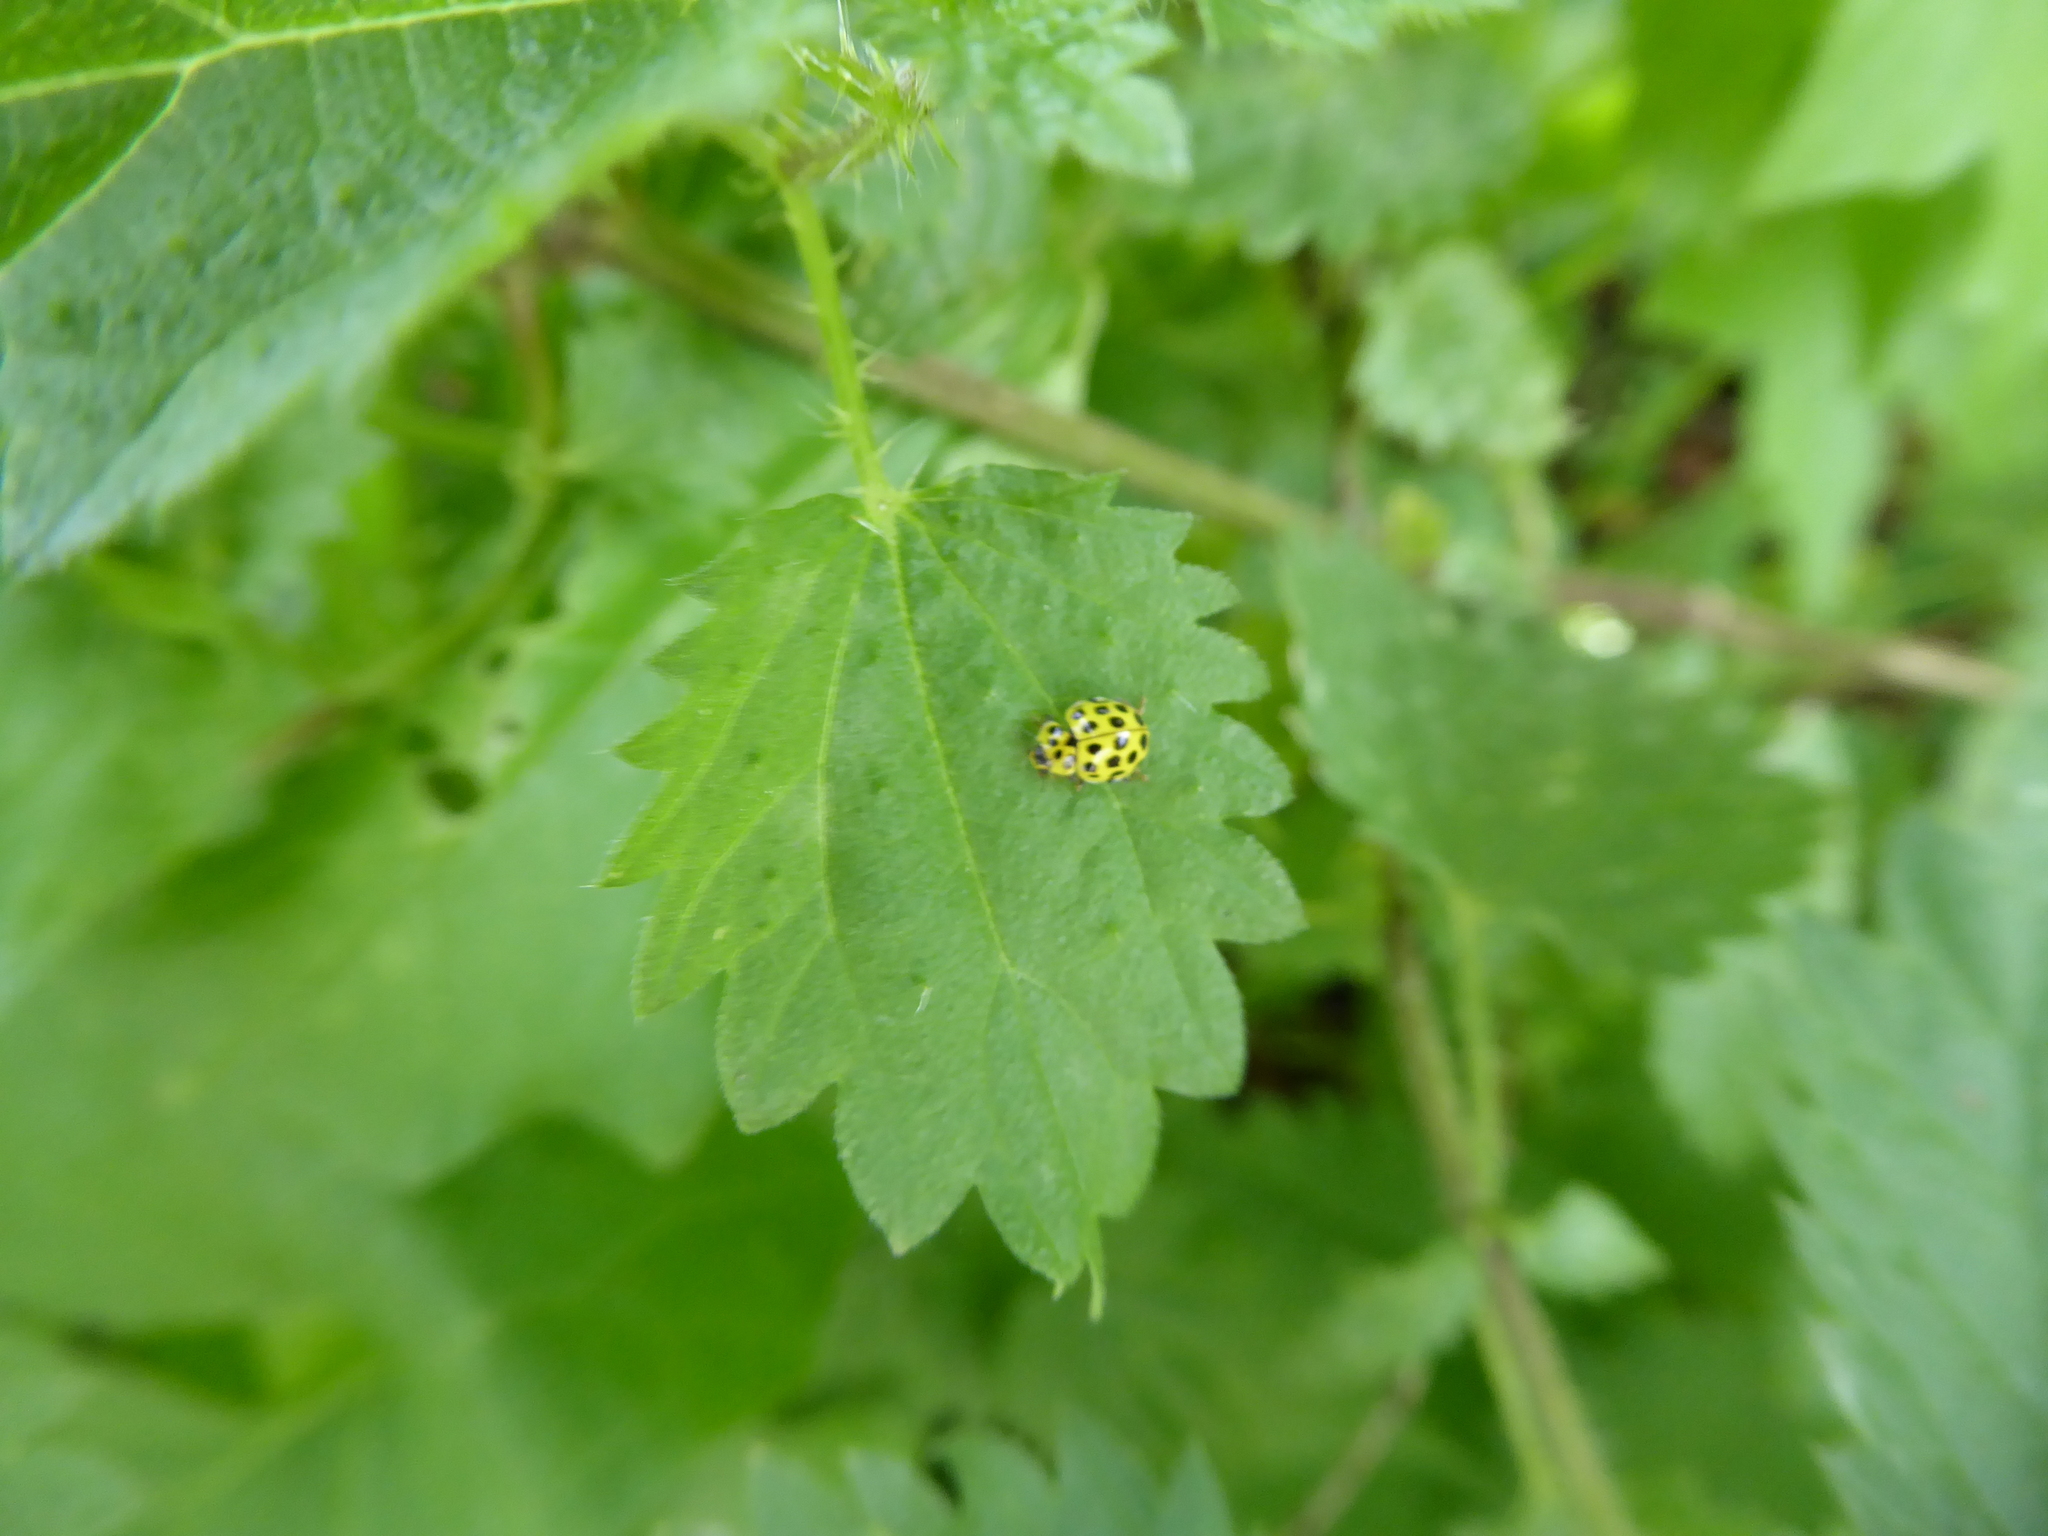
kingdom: Animalia
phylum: Arthropoda
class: Insecta
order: Coleoptera
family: Coccinellidae
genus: Psyllobora
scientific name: Psyllobora vigintiduopunctata
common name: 22-spot ladybird
